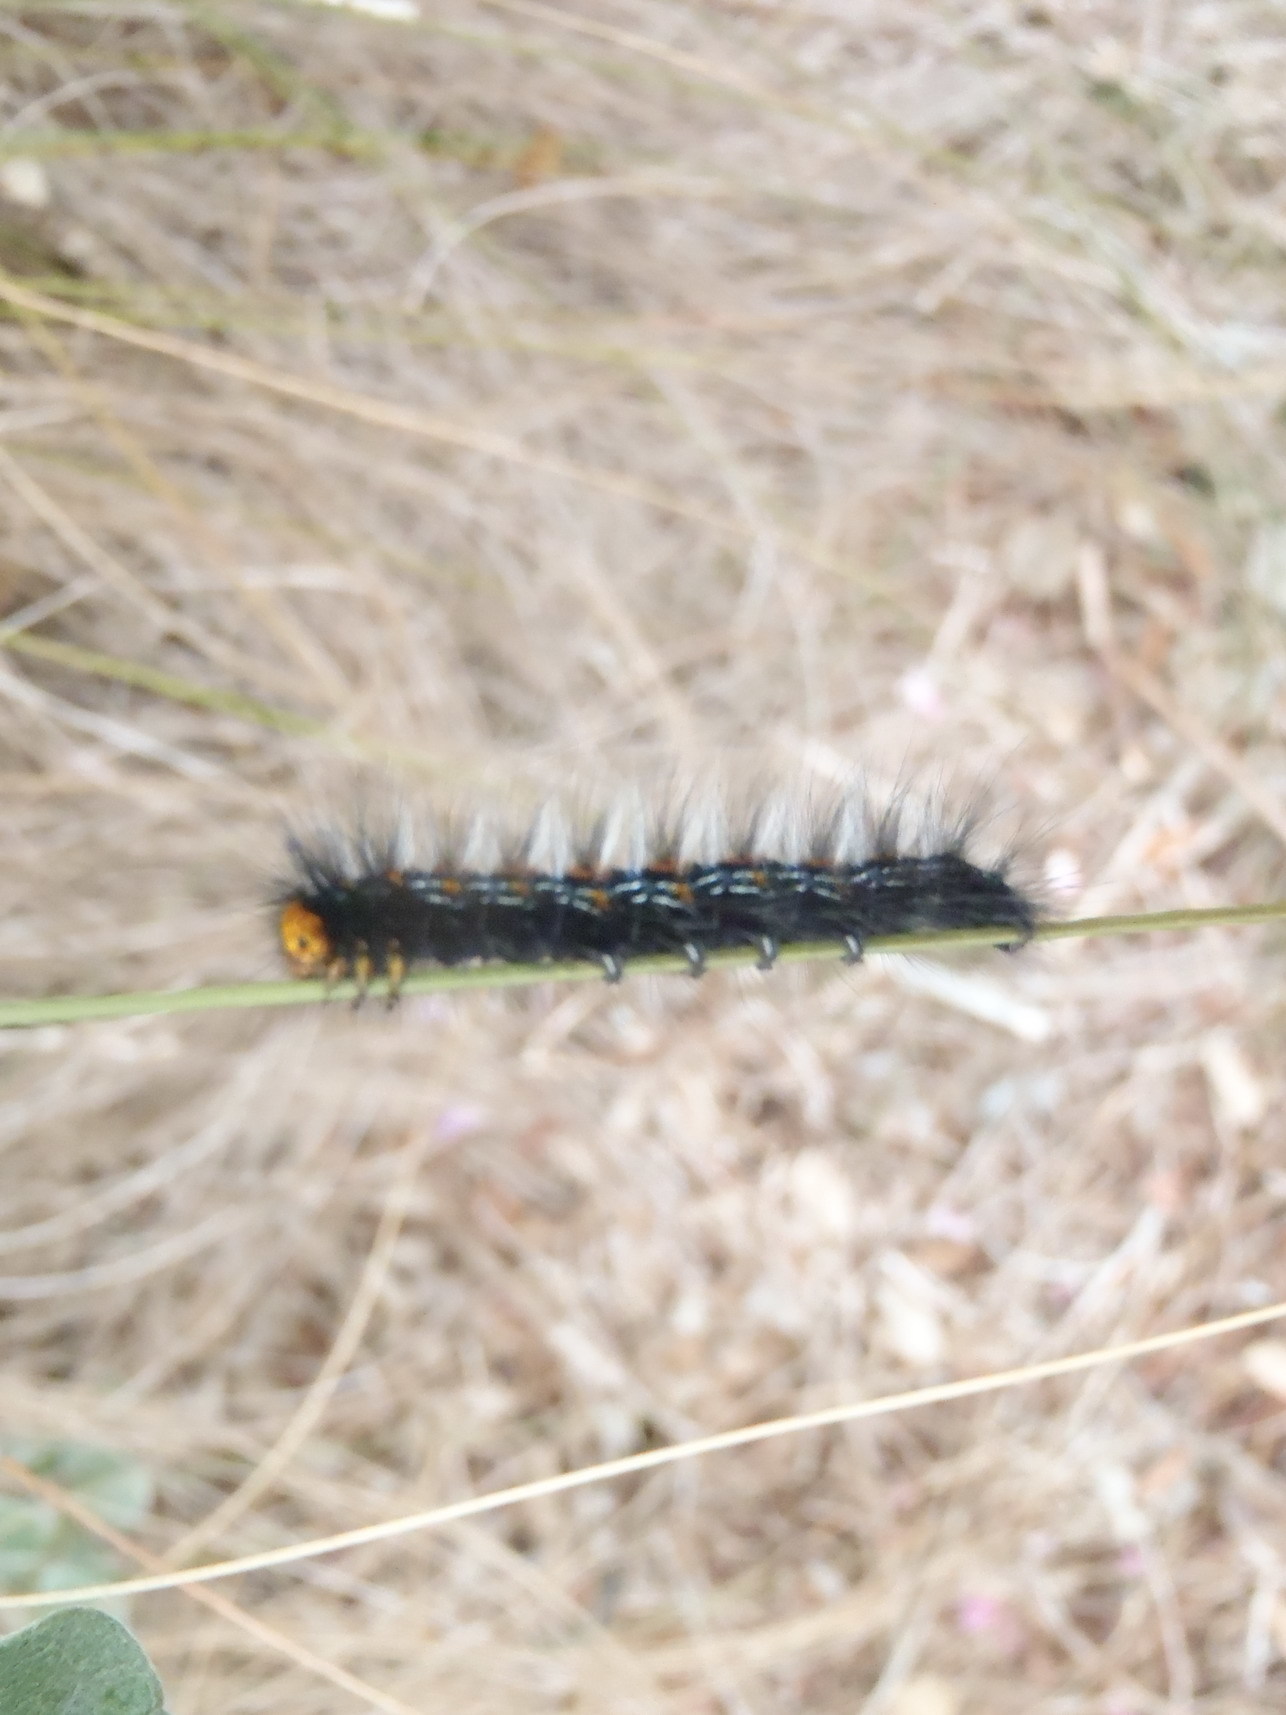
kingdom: Animalia
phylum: Arthropoda
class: Insecta
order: Lepidoptera
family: Lasiocampidae
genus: Mesocelis
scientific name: Mesocelis monticola
